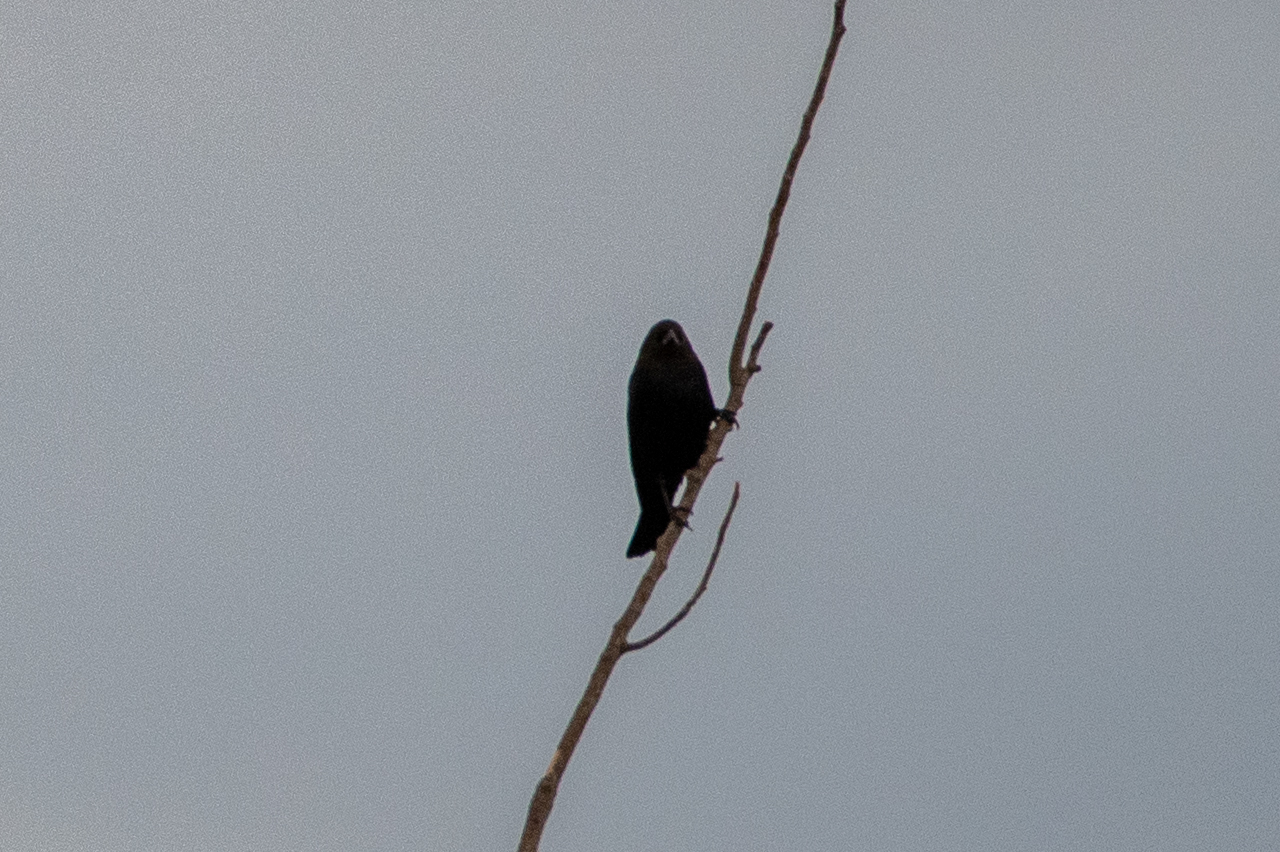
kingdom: Animalia
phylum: Chordata
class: Aves
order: Passeriformes
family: Icteridae
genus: Molothrus
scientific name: Molothrus ater
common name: Brown-headed cowbird
